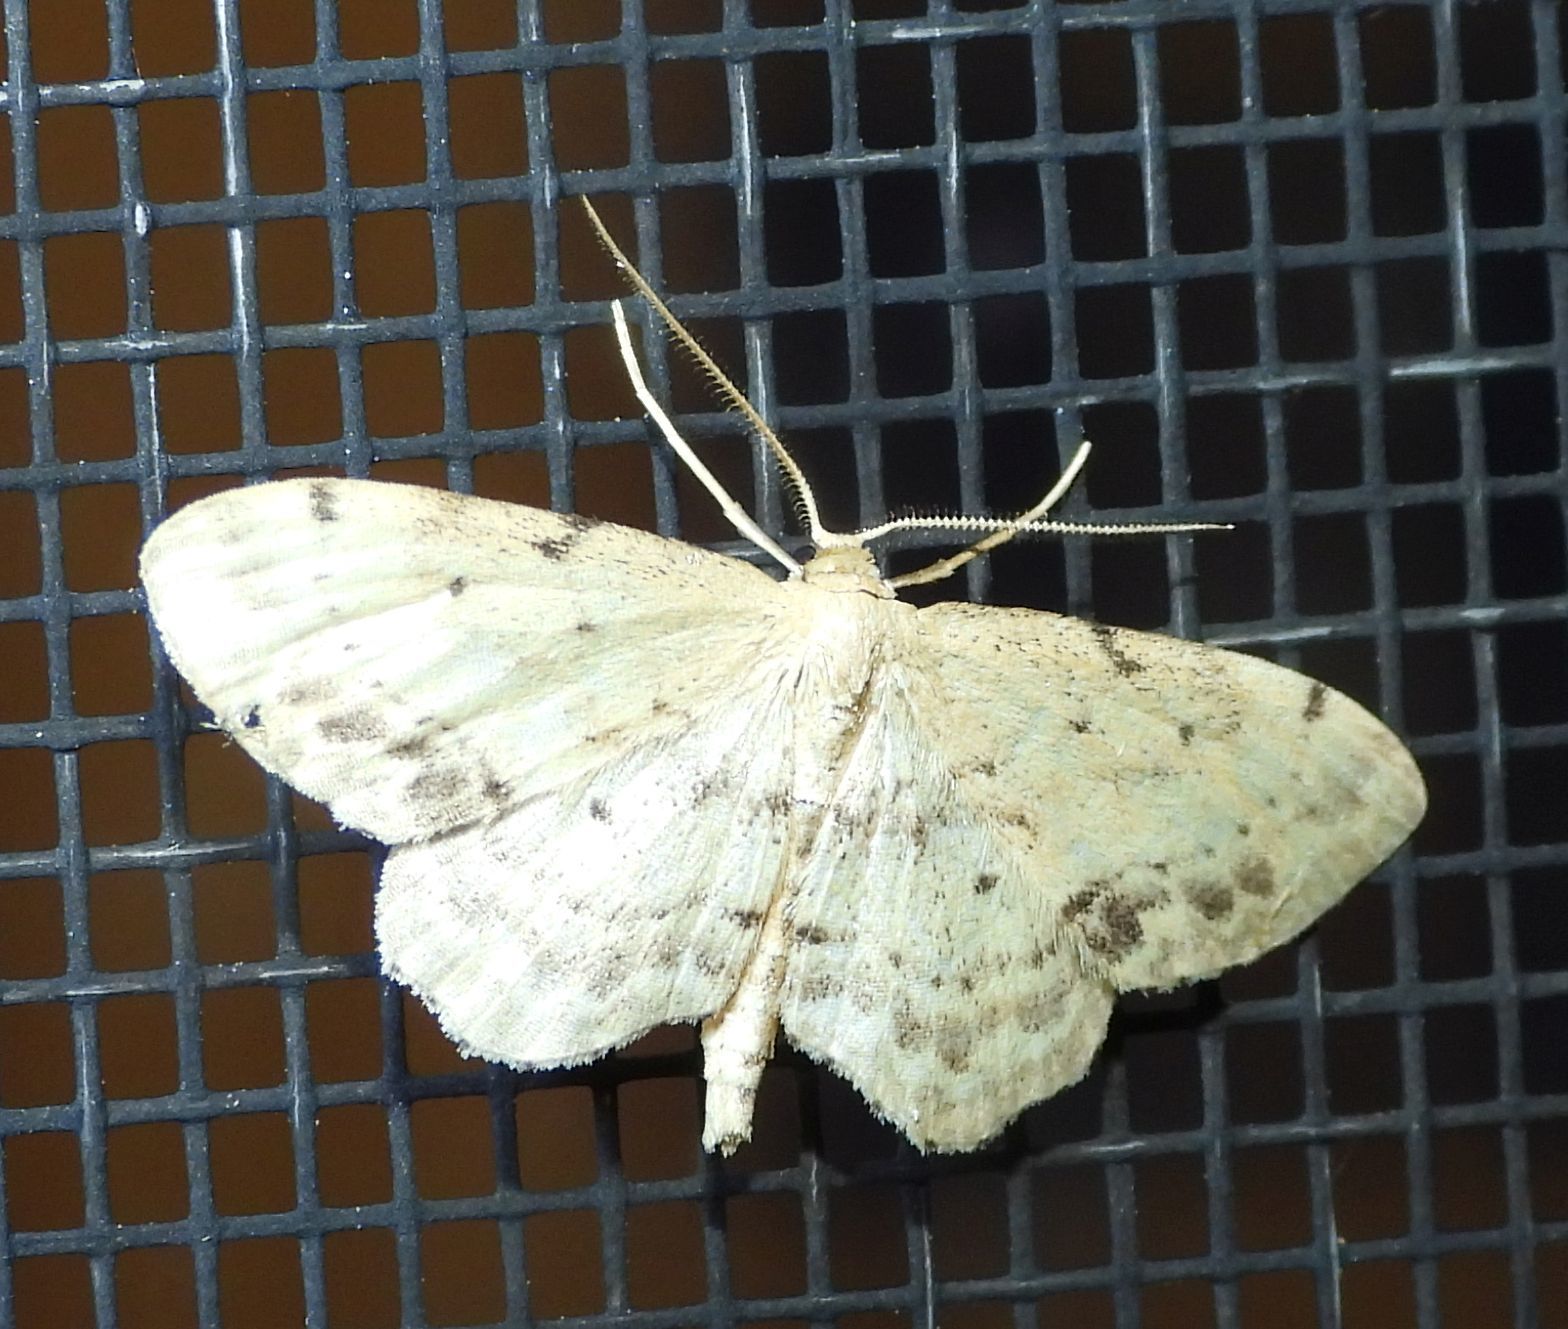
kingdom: Animalia
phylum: Arthropoda
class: Insecta
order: Lepidoptera
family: Geometridae
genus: Idaea
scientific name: Idaea dimidiata
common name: Single-dotted wave
